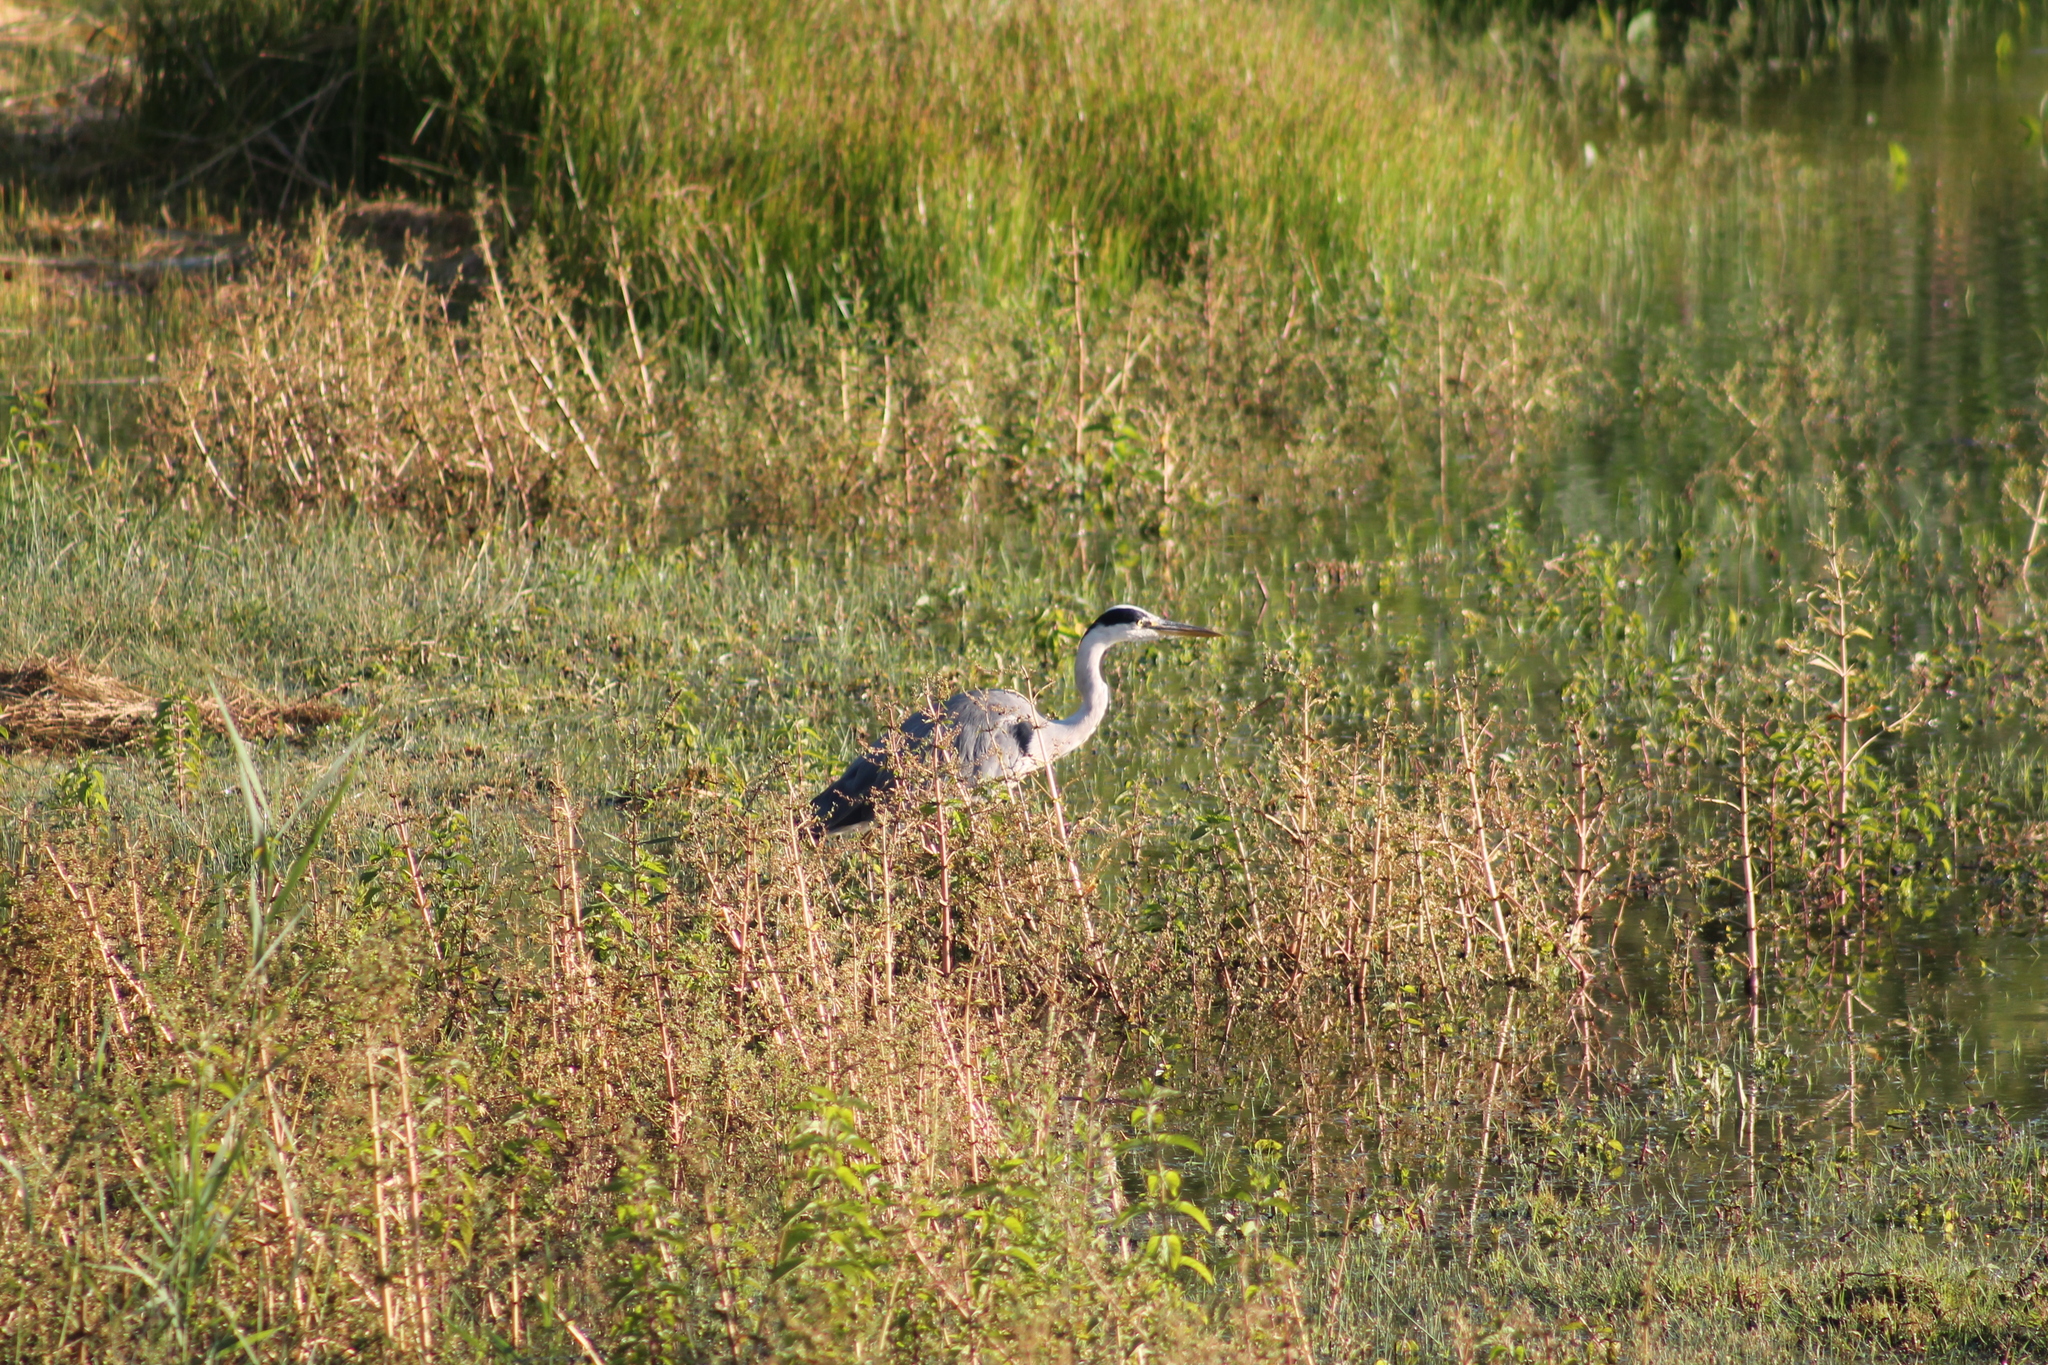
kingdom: Animalia
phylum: Chordata
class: Aves
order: Pelecaniformes
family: Ardeidae
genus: Ardea
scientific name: Ardea cinerea
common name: Grey heron
